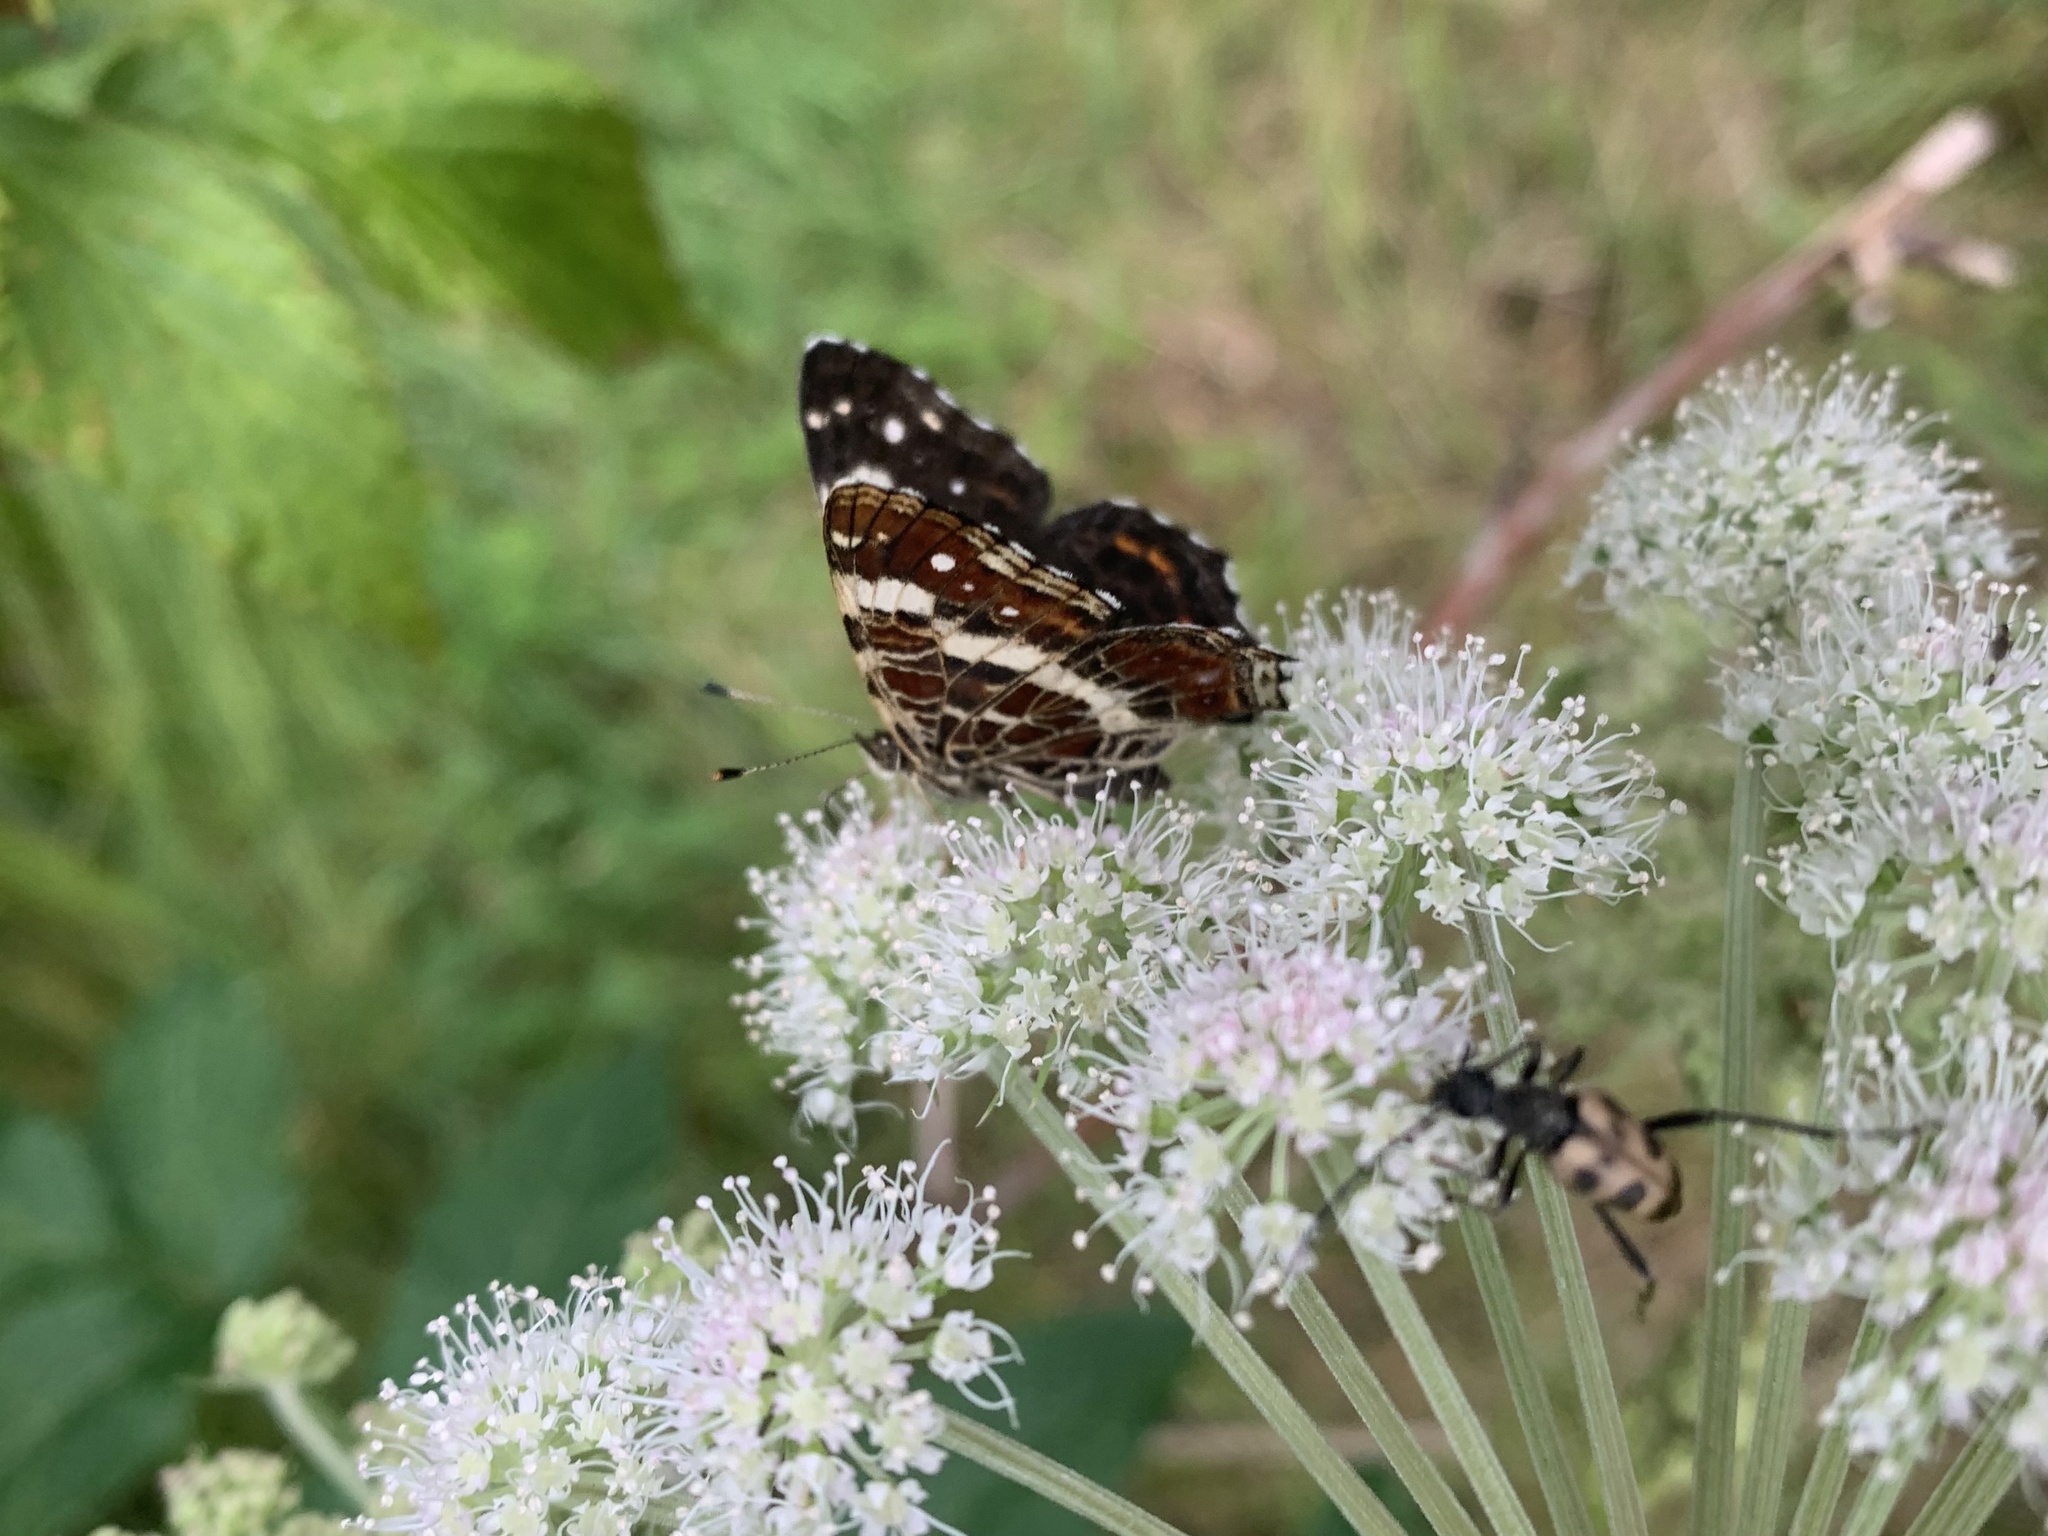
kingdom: Animalia
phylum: Arthropoda
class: Insecta
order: Lepidoptera
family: Nymphalidae
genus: Araschnia
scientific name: Araschnia levana
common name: Map butterfly
